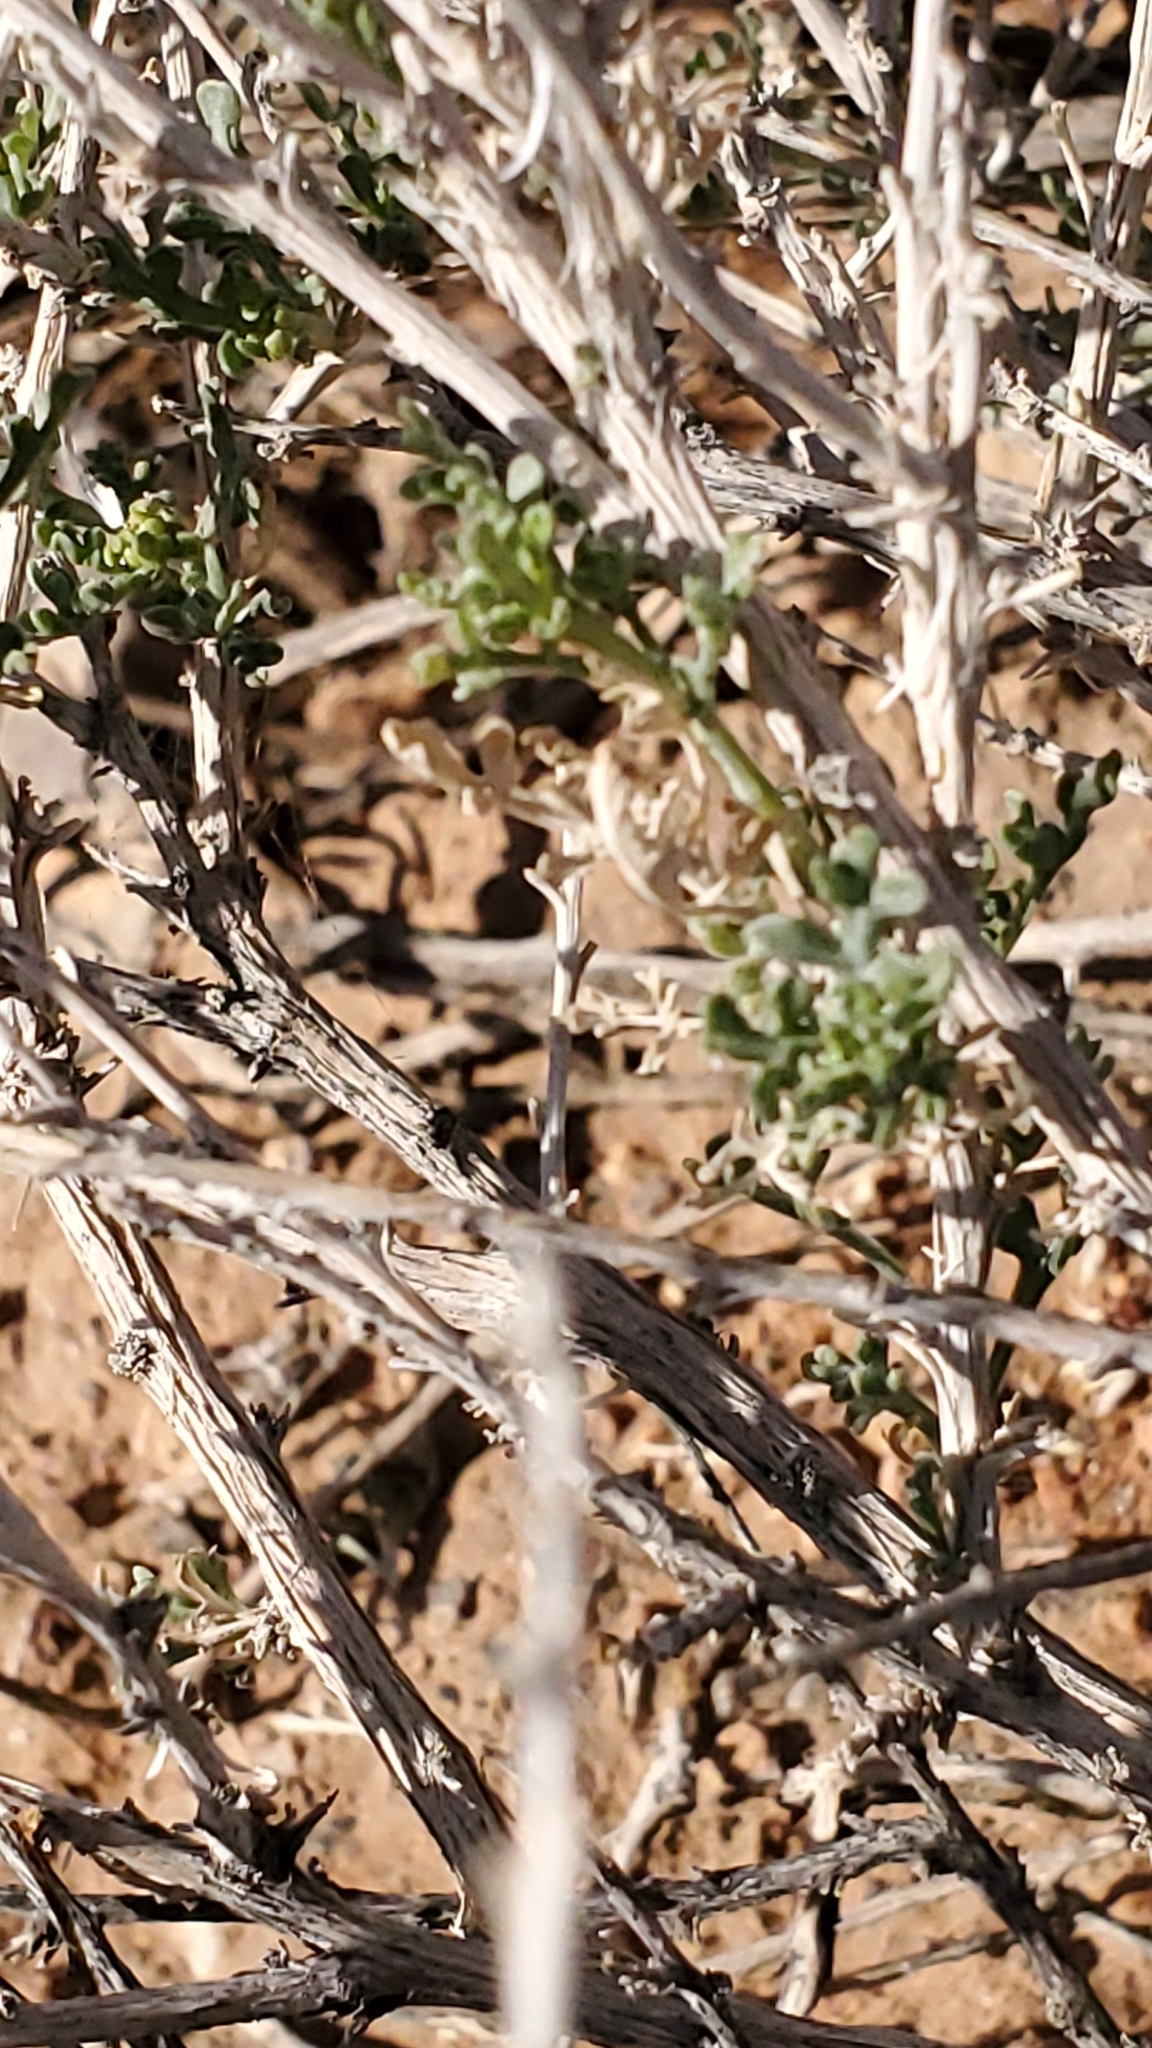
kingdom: Plantae
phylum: Tracheophyta
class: Magnoliopsida
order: Asterales
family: Asteraceae
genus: Ambrosia
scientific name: Ambrosia dumosa
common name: Bur-sage
